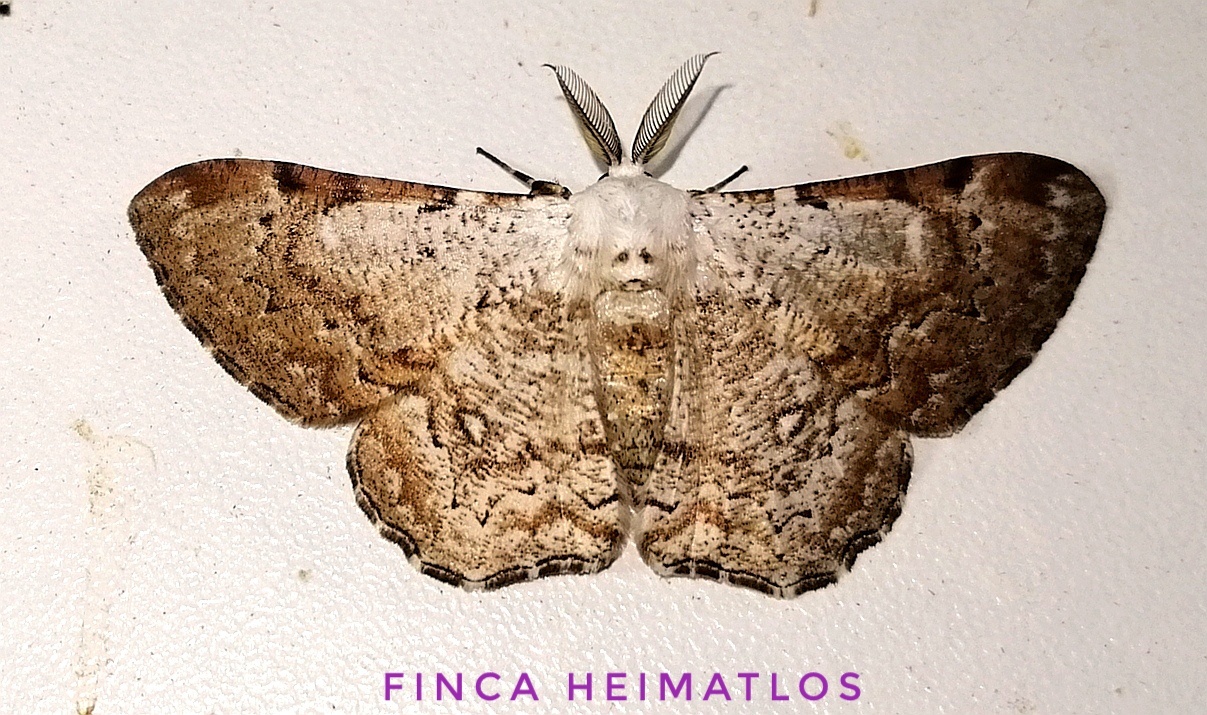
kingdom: Animalia
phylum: Arthropoda
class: Insecta
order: Lepidoptera
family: Geometridae
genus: Thyrinteina
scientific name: Thyrinteina arnobia
